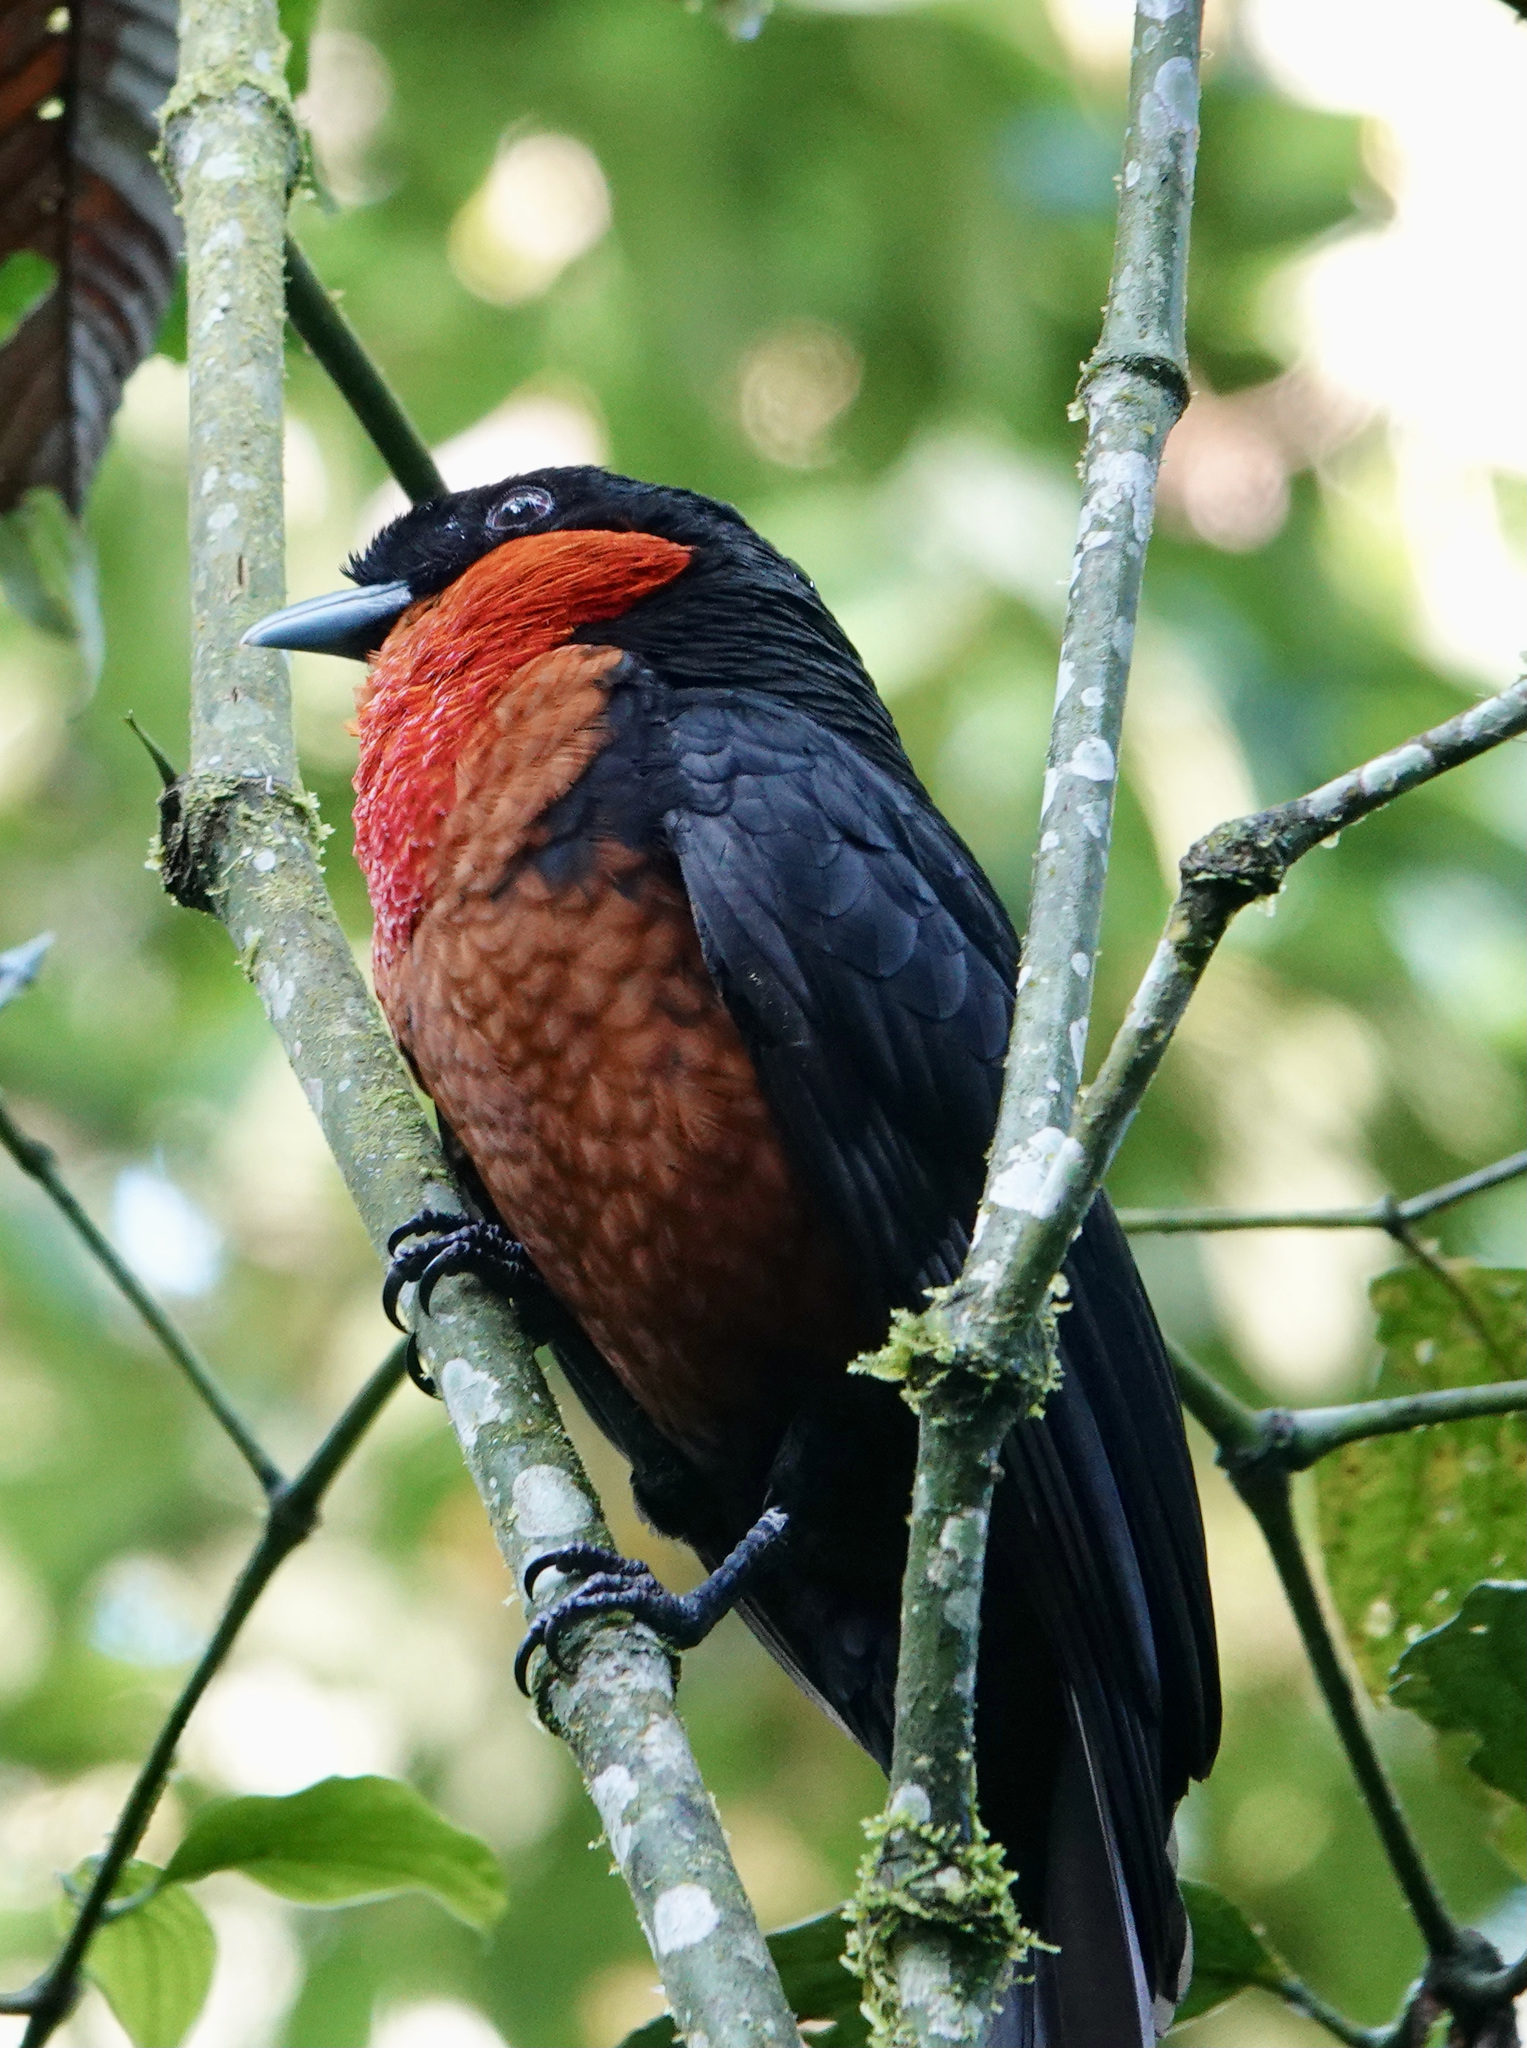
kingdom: Animalia
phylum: Chordata
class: Aves
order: Passeriformes
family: Cotingidae
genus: Pyroderus
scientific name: Pyroderus scutatus
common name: Red-ruffed fruitcrow
